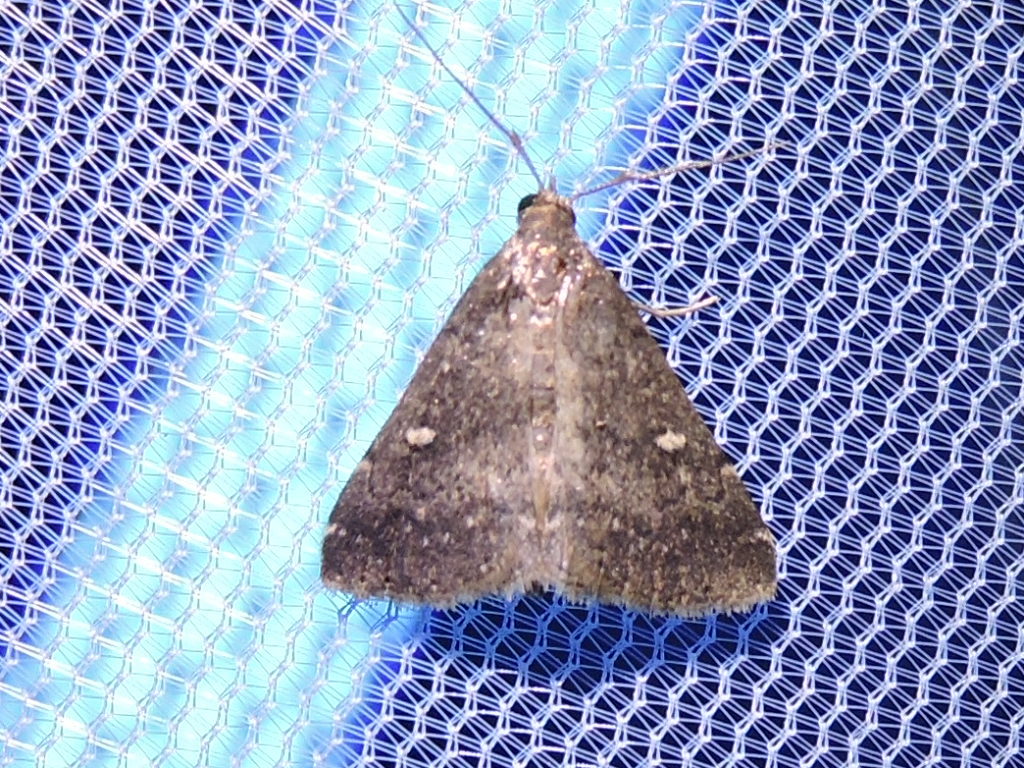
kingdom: Animalia
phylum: Arthropoda
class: Insecta
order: Lepidoptera
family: Erebidae
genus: Tetanolita
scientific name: Tetanolita mynesalis
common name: Smoky tetanolita moth
